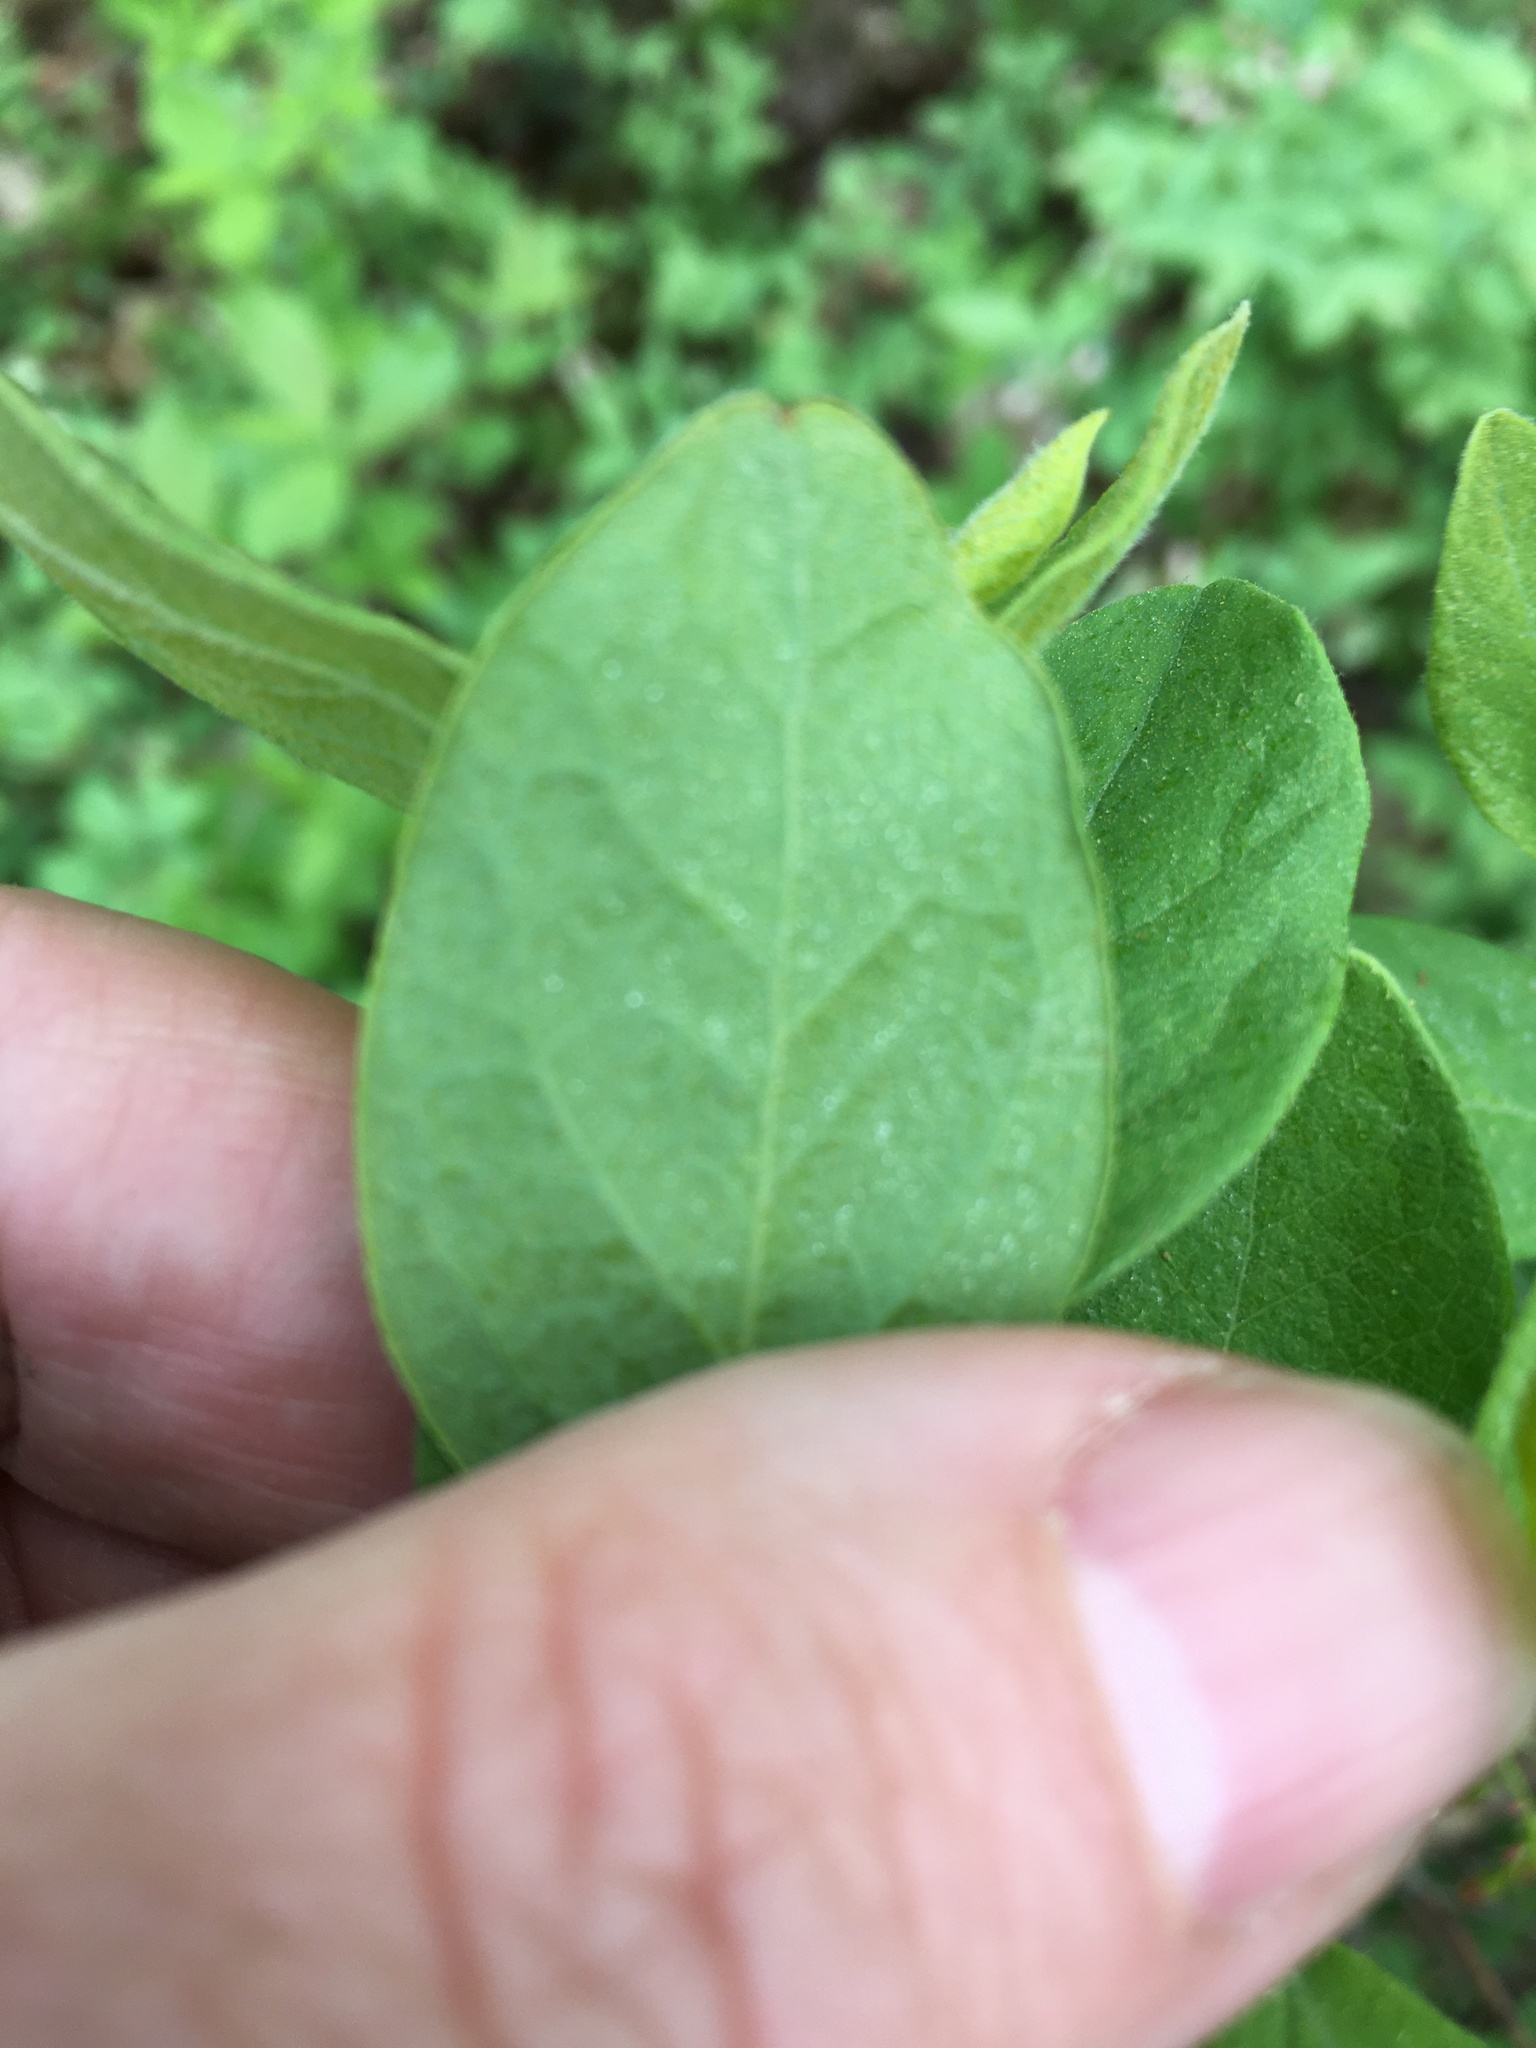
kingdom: Plantae
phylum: Tracheophyta
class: Magnoliopsida
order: Ericales
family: Ericaceae
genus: Gaylussacia
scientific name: Gaylussacia baccata
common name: Black huckleberry
